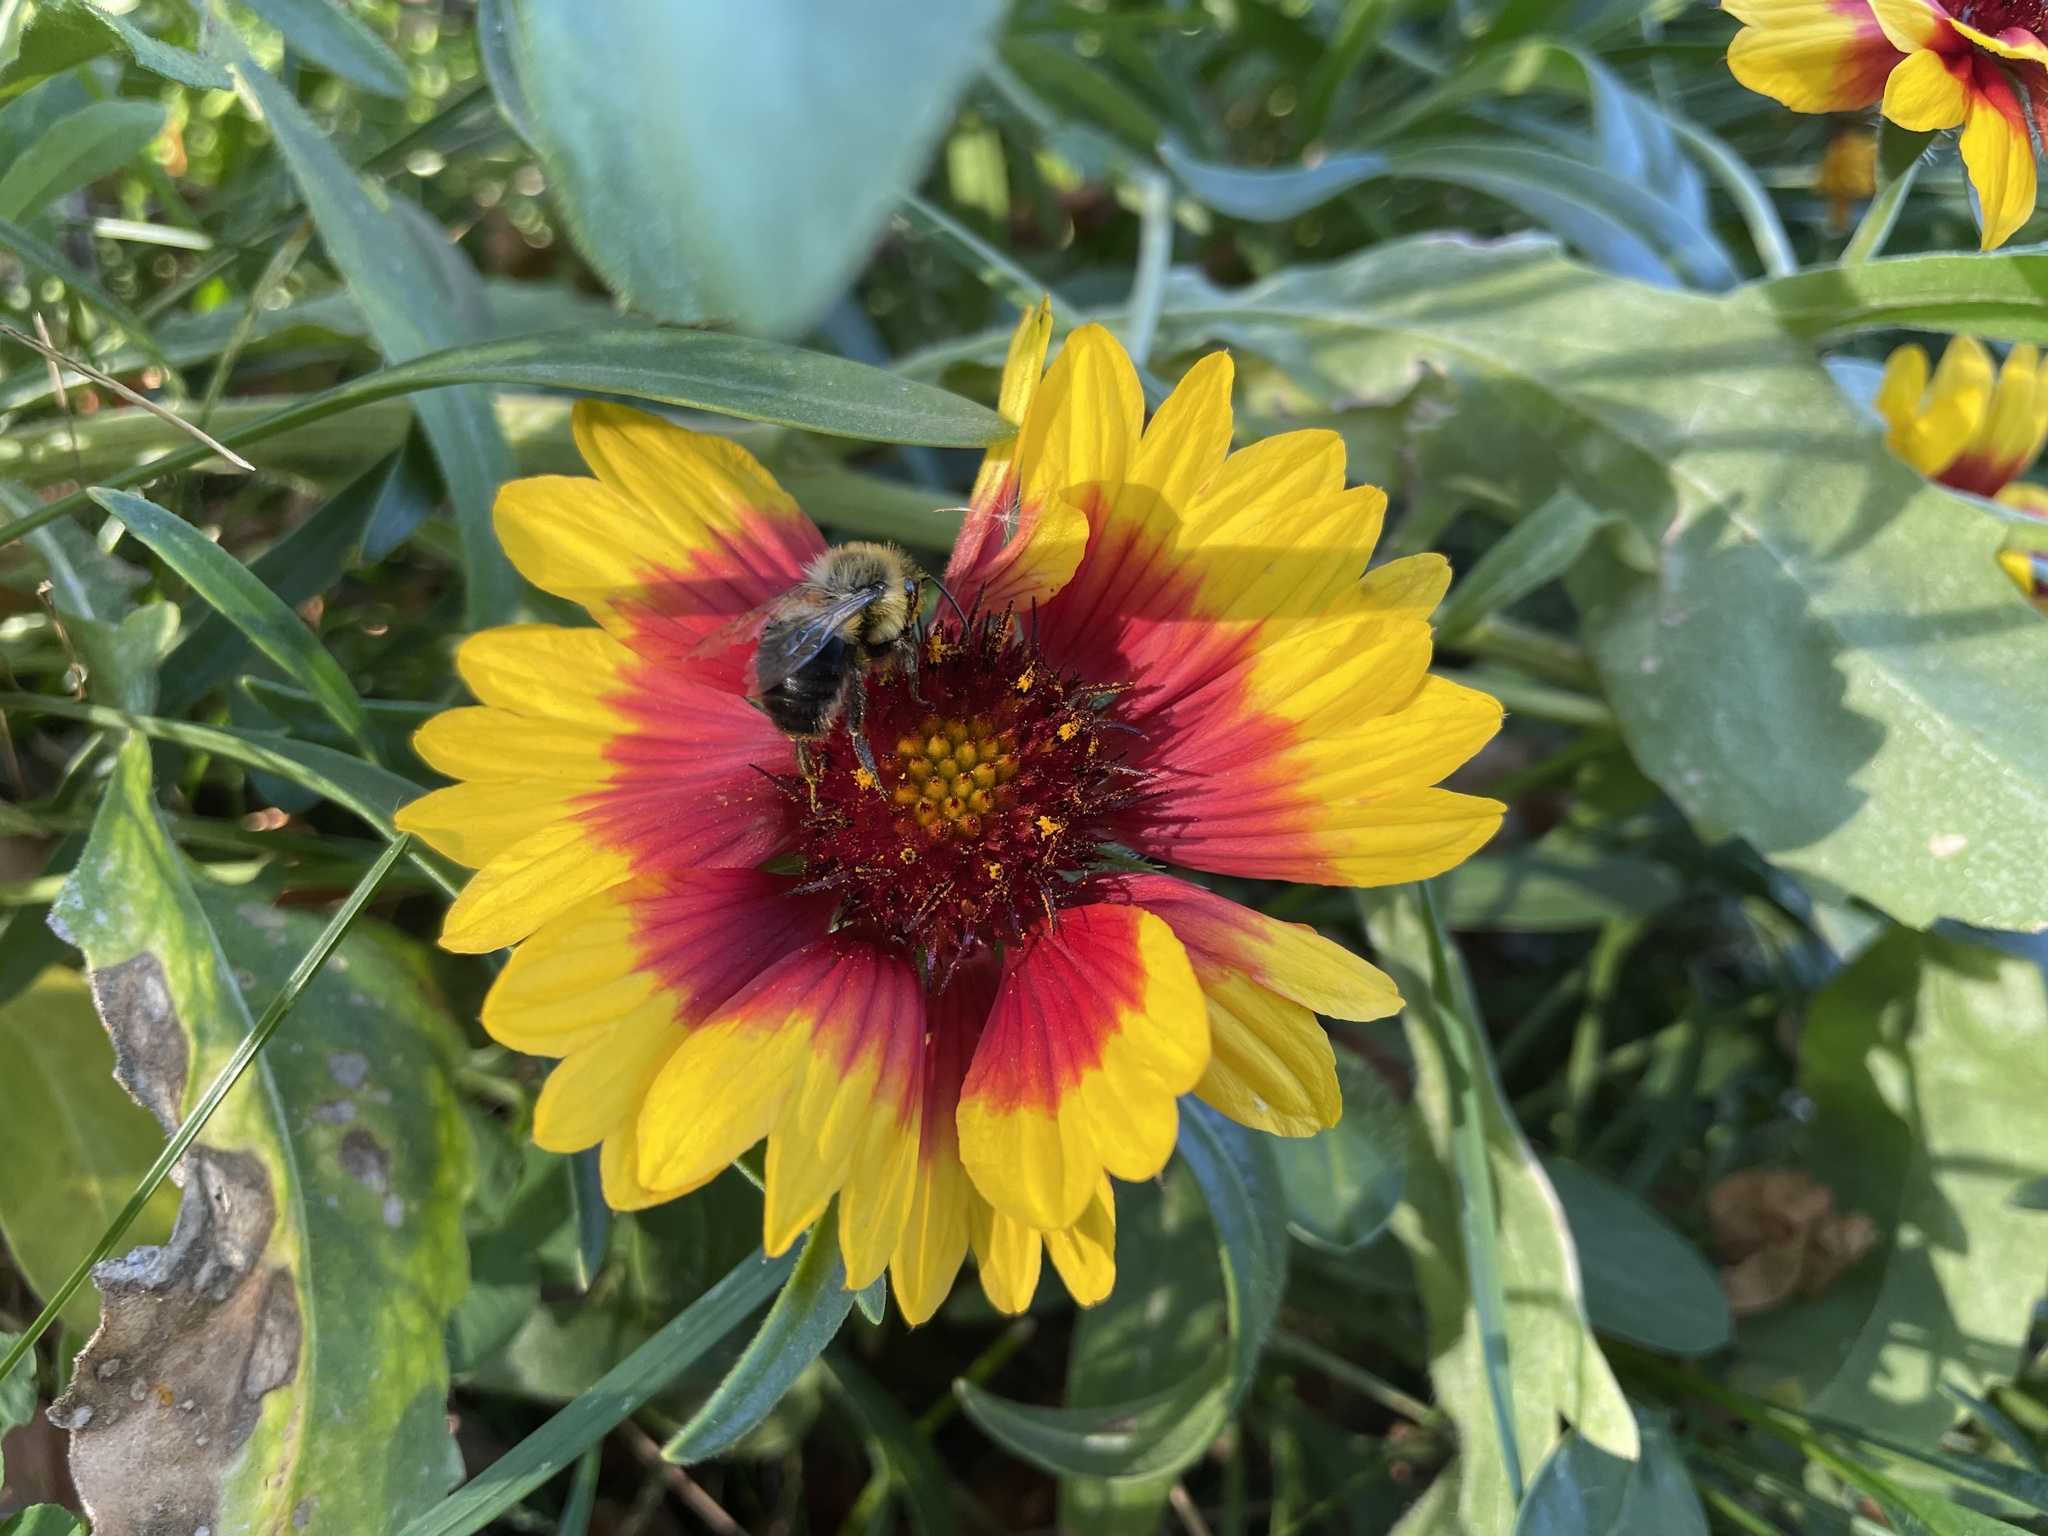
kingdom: Animalia
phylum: Arthropoda
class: Insecta
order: Hymenoptera
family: Apidae
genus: Bombus
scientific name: Bombus impatiens
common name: Common eastern bumble bee
